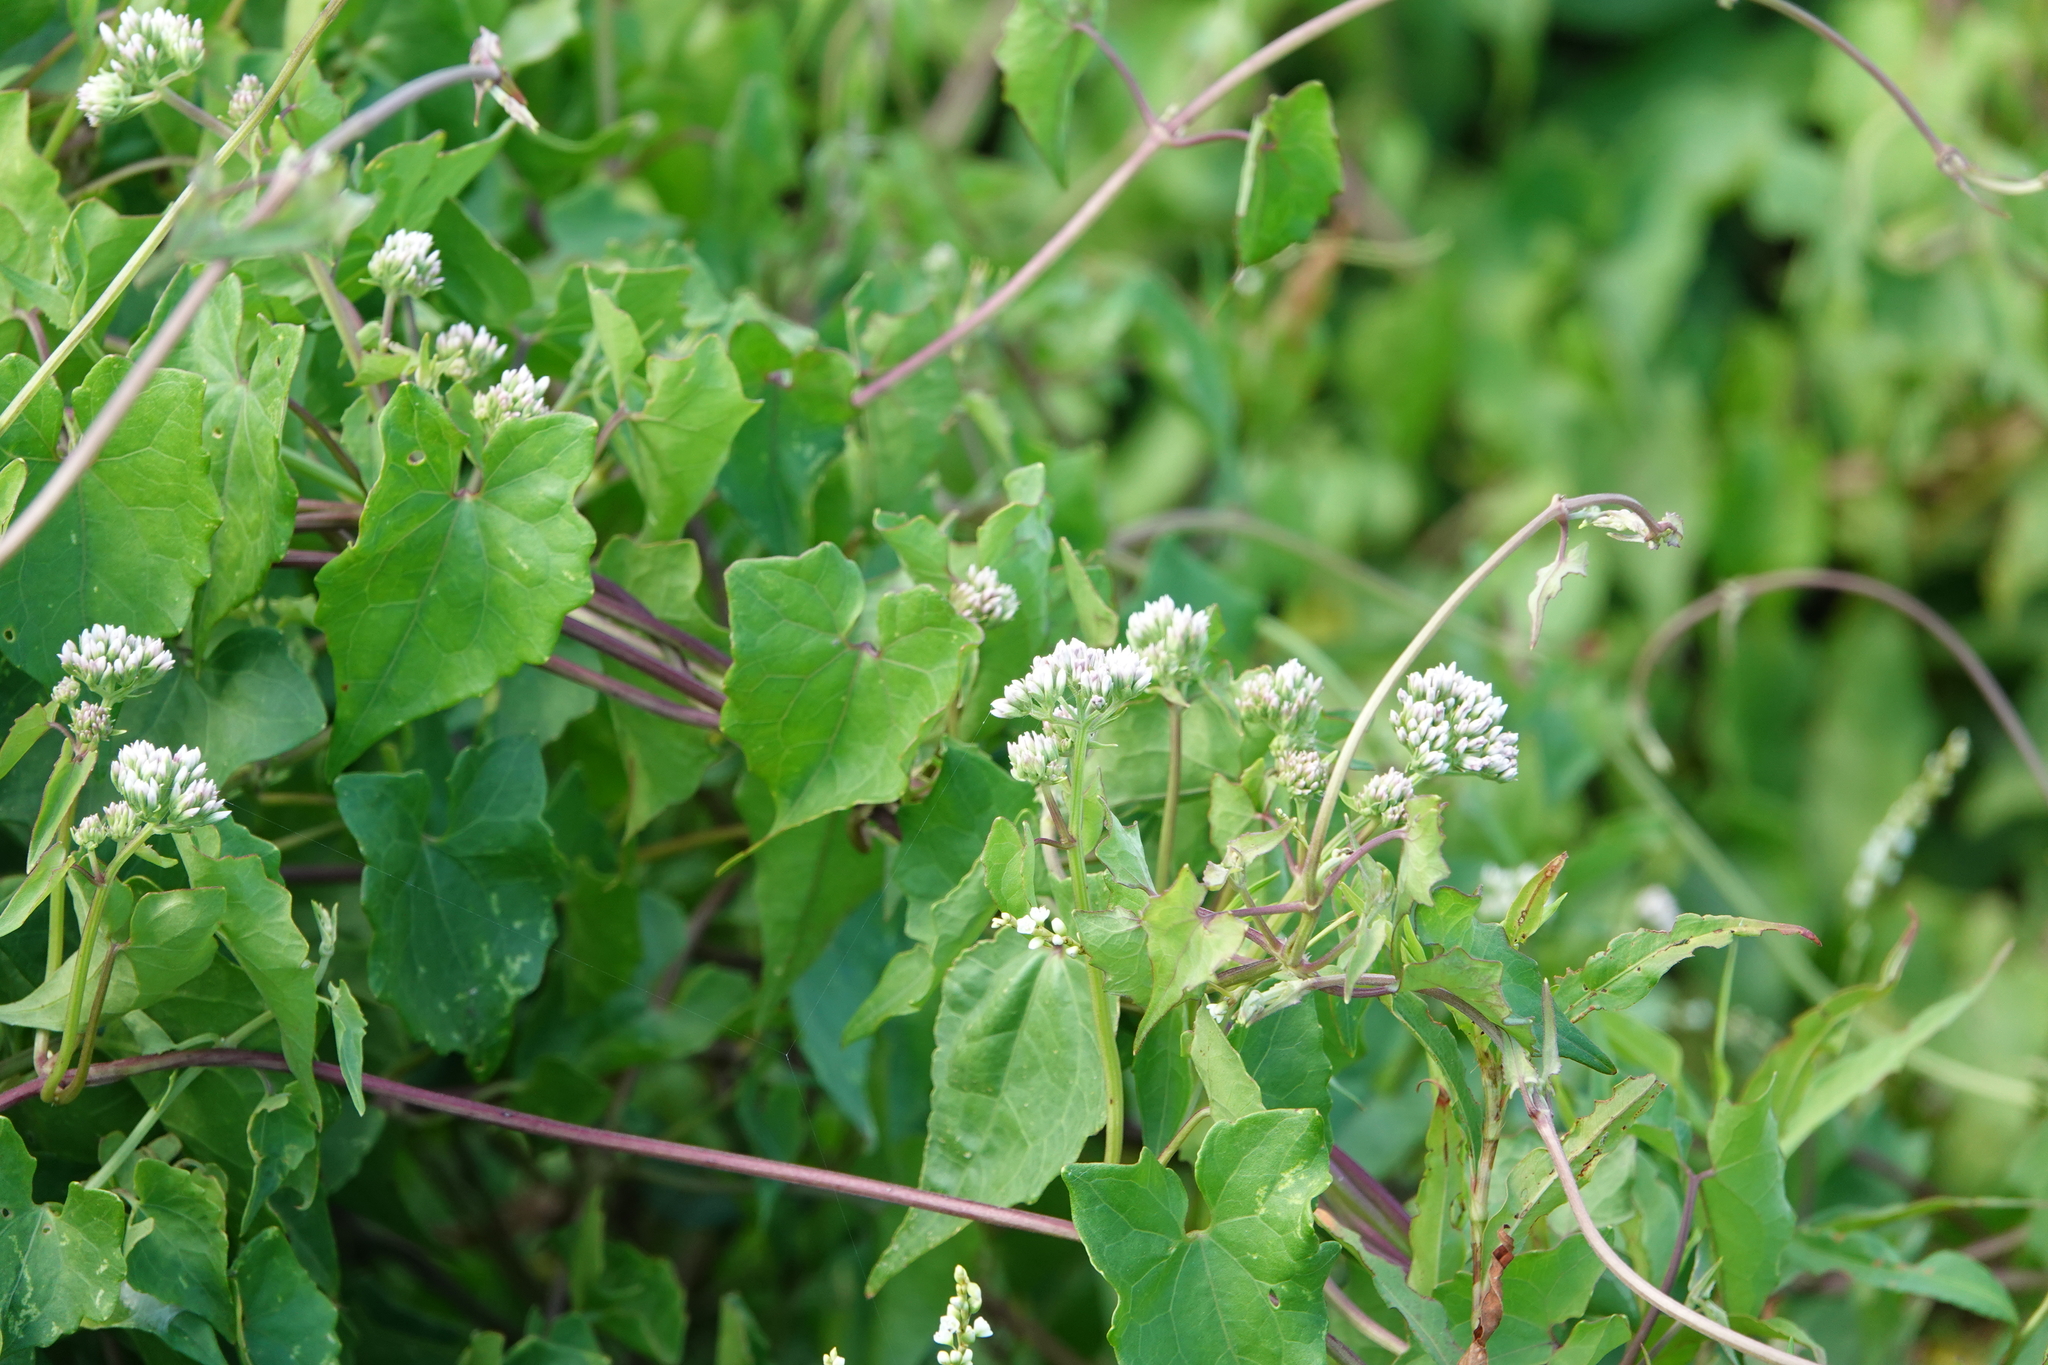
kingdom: Plantae
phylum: Tracheophyta
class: Magnoliopsida
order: Asterales
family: Asteraceae
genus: Mikania
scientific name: Mikania scandens
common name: Climbing hempvine
